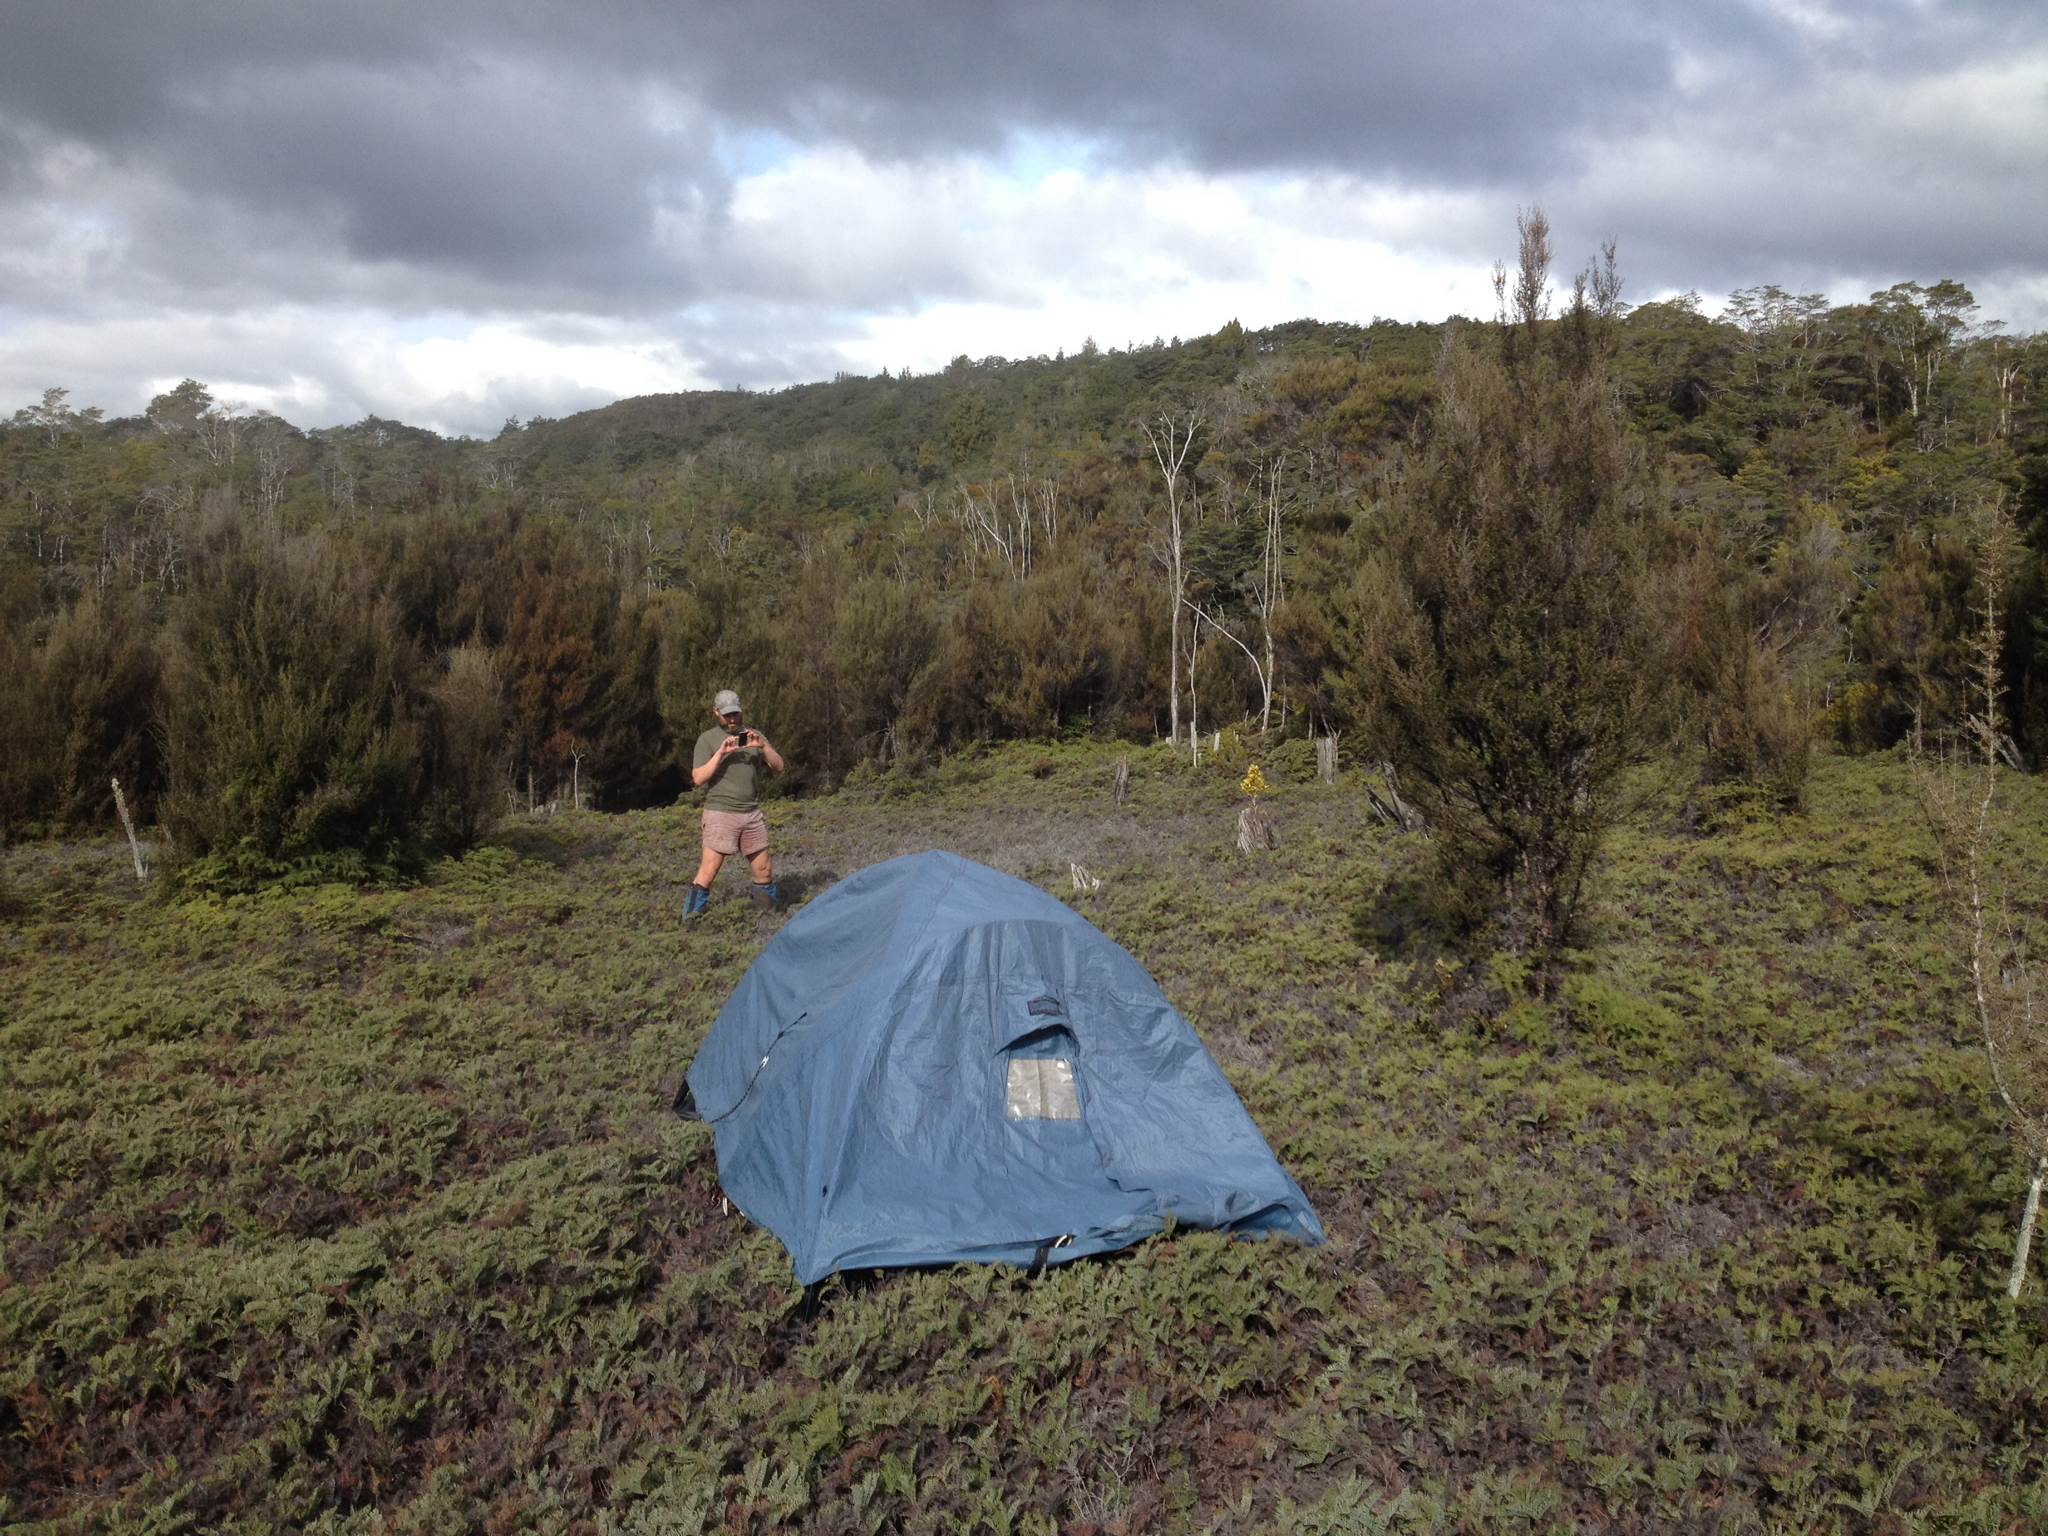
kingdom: Plantae
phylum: Tracheophyta
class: Polypodiopsida
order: Gleicheniales
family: Gleicheniaceae
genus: Gleichenia
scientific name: Gleichenia
